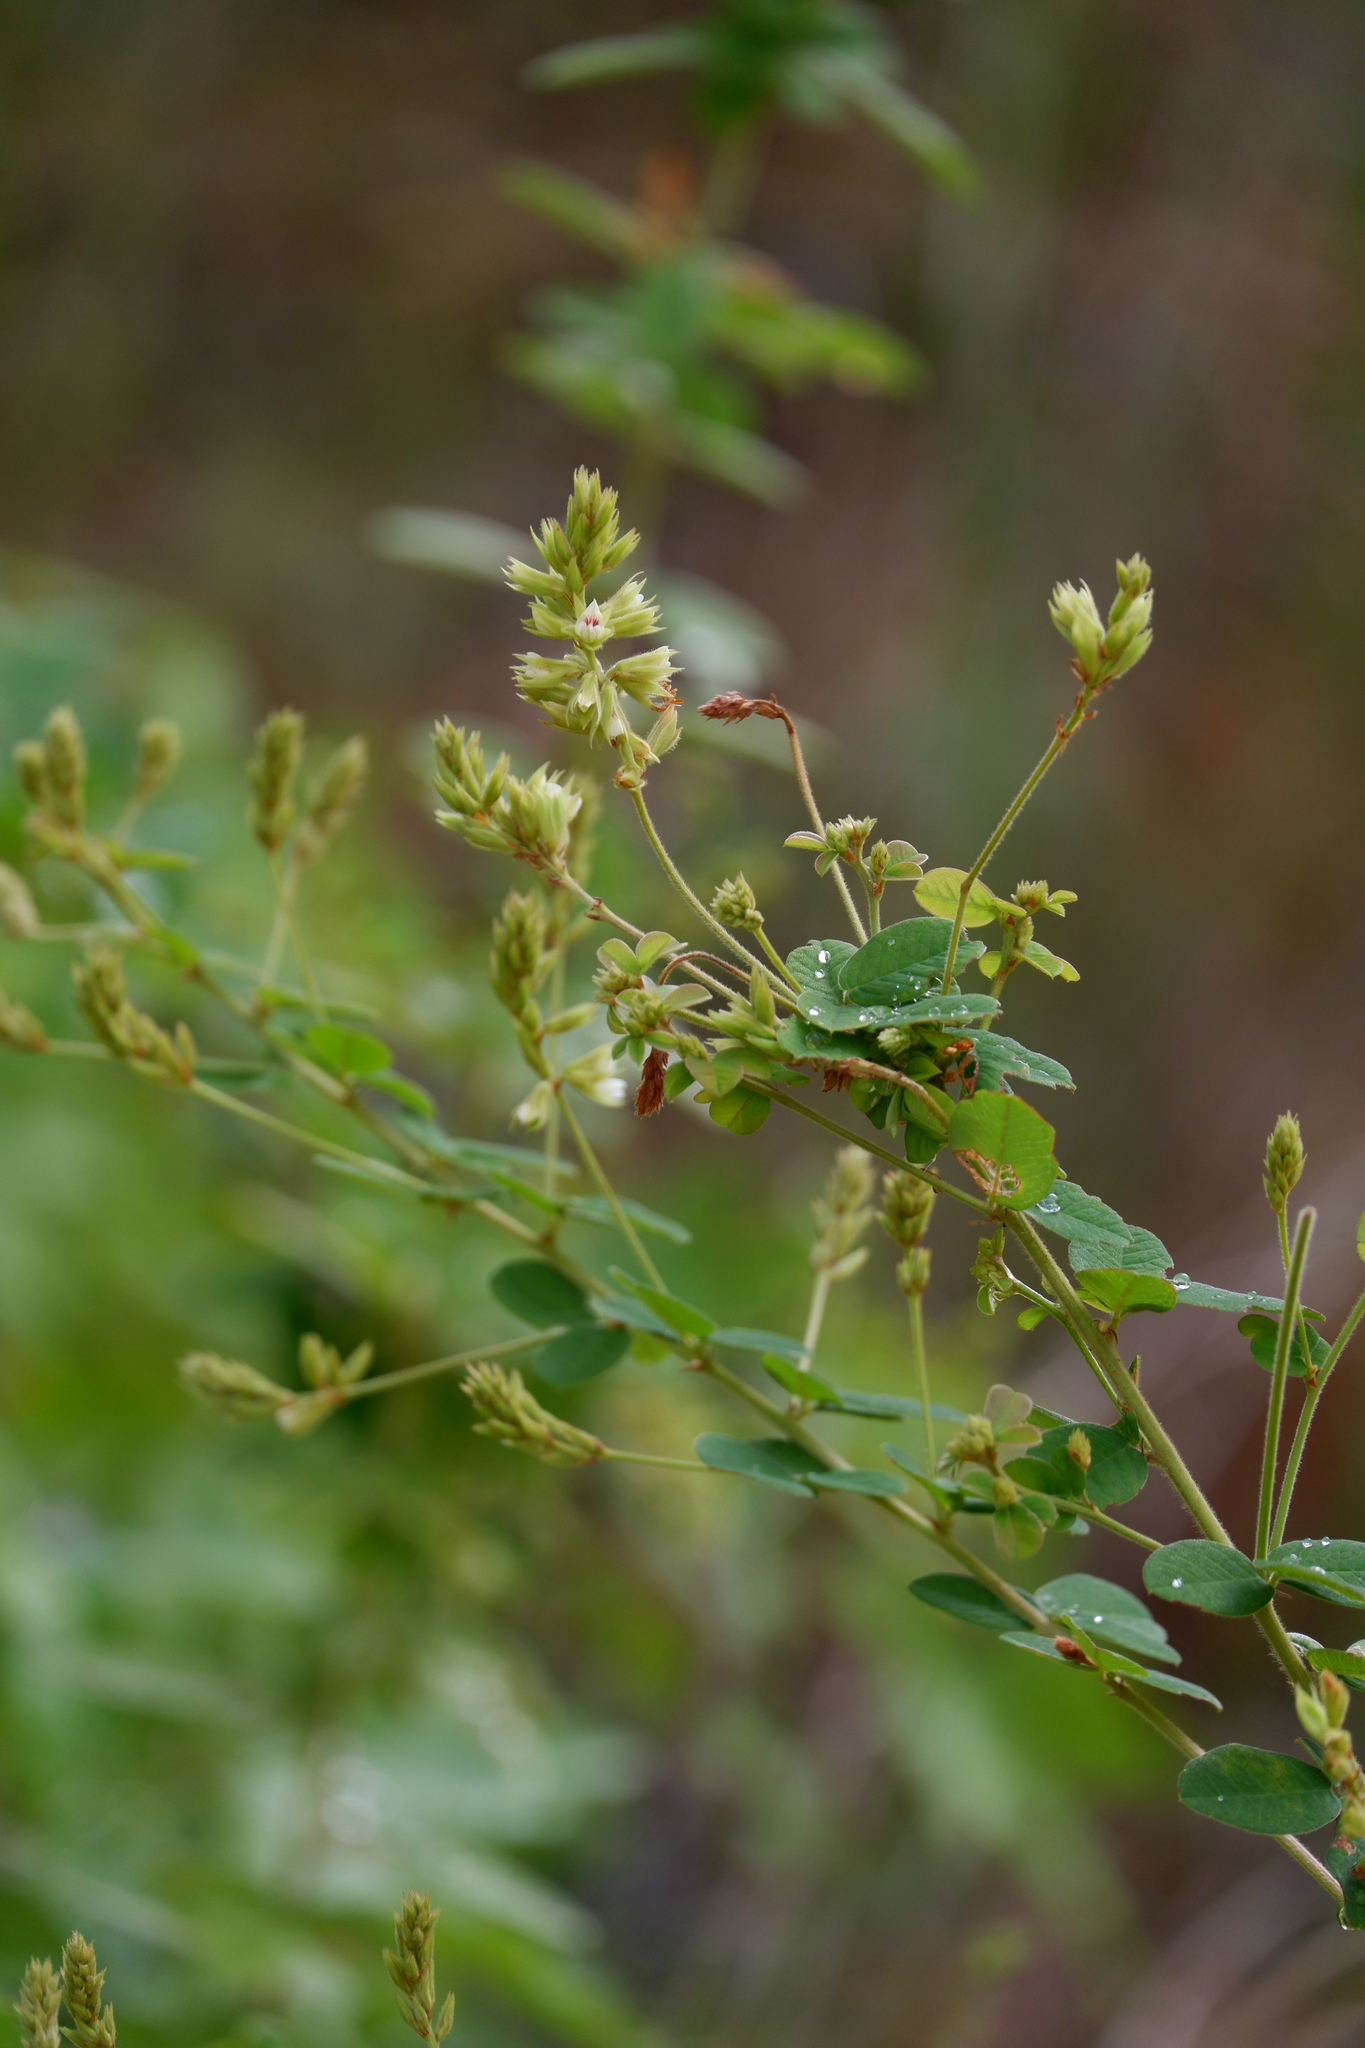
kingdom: Plantae
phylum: Tracheophyta
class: Magnoliopsida
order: Fabales
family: Fabaceae
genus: Lespedeza
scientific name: Lespedeza hirta
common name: Hairy lespedeza
